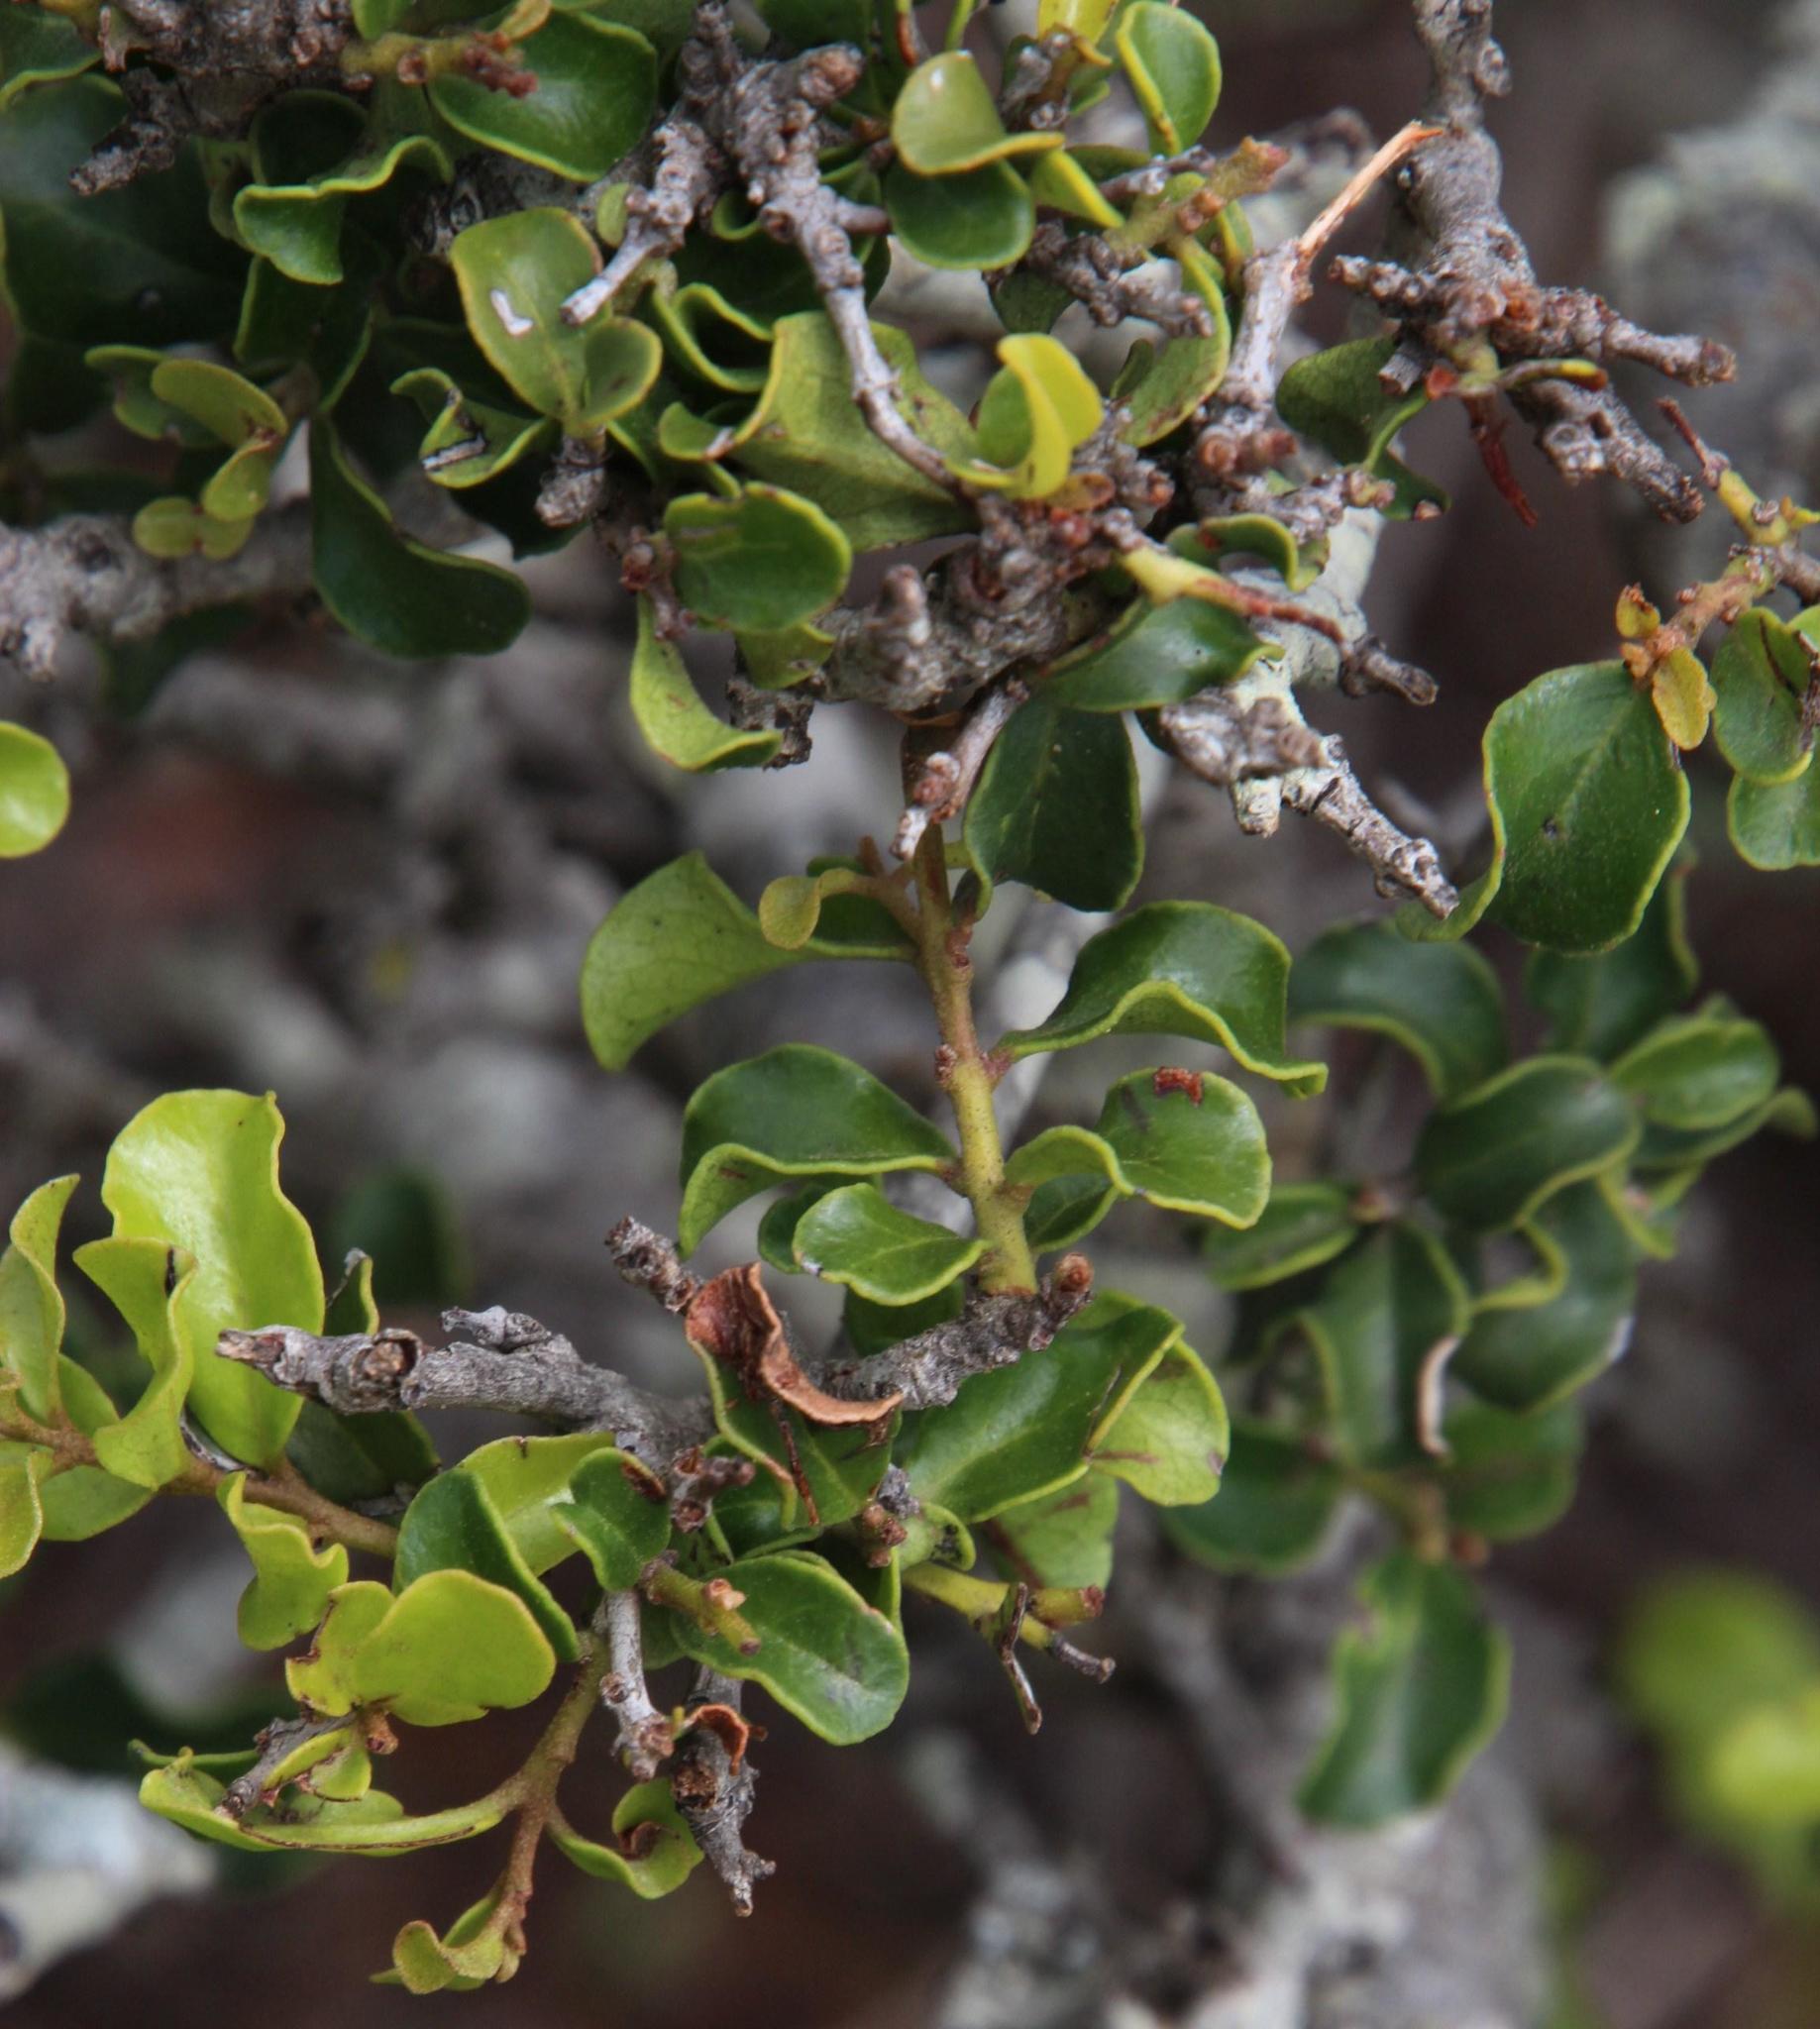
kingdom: Plantae
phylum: Tracheophyta
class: Magnoliopsida
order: Ericales
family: Ebenaceae
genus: Euclea
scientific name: Euclea undulata
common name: Small-leaved guarri
